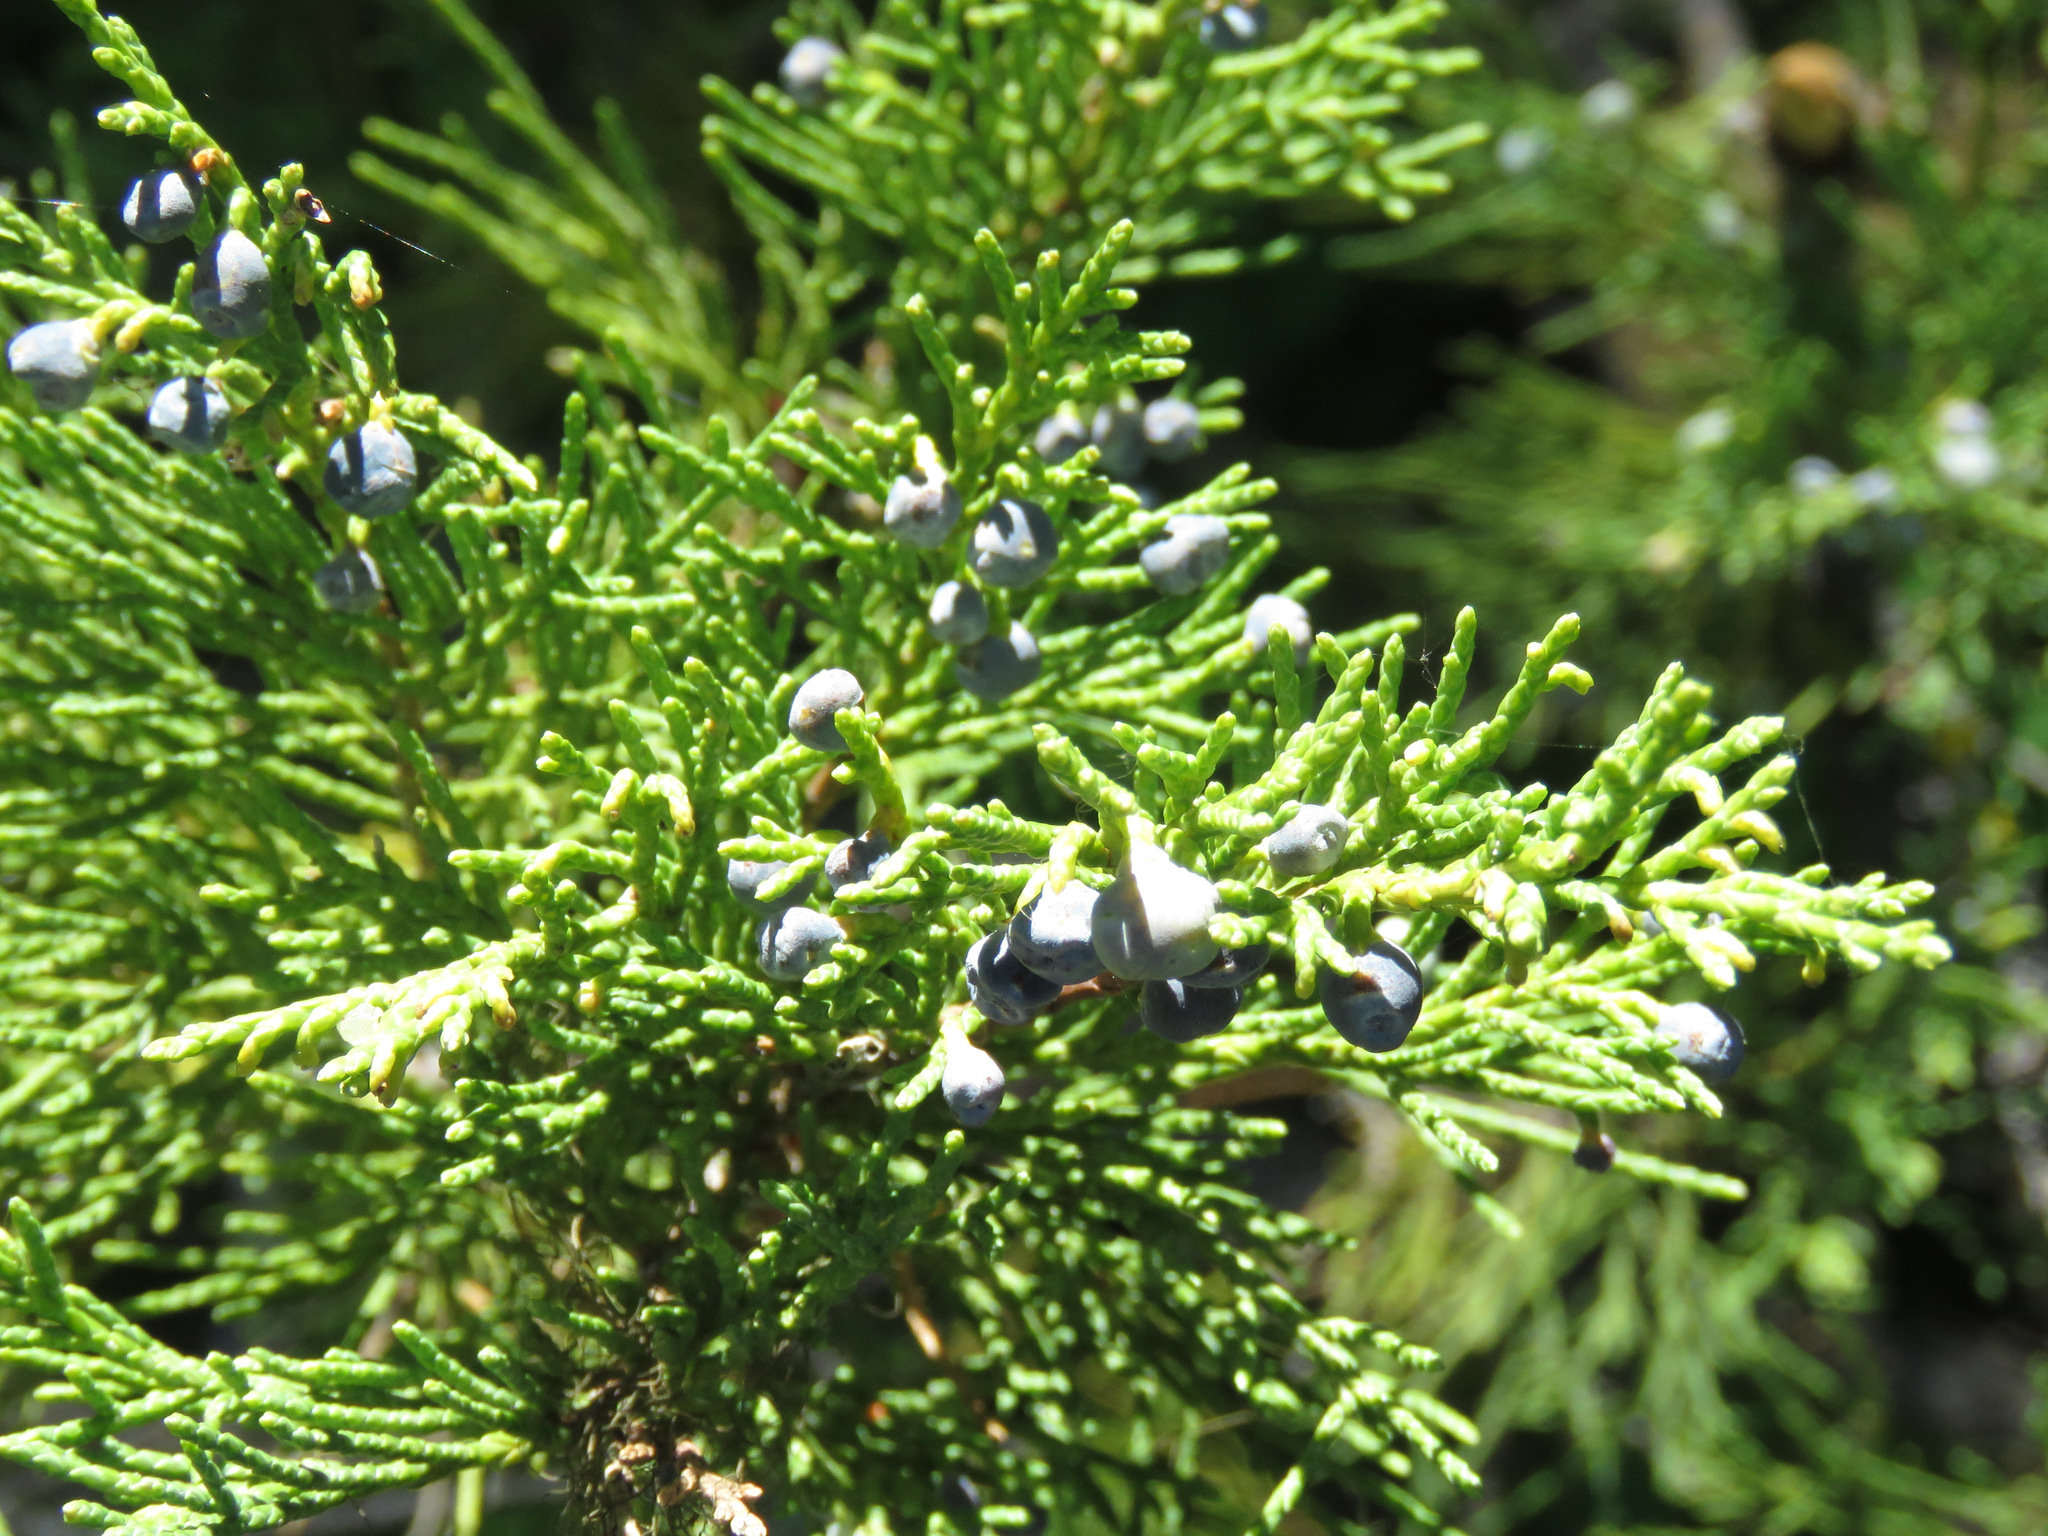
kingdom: Plantae
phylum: Tracheophyta
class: Pinopsida
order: Pinales
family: Cupressaceae
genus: Juniperus
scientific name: Juniperus scopulorum
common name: Rocky mountain juniper
